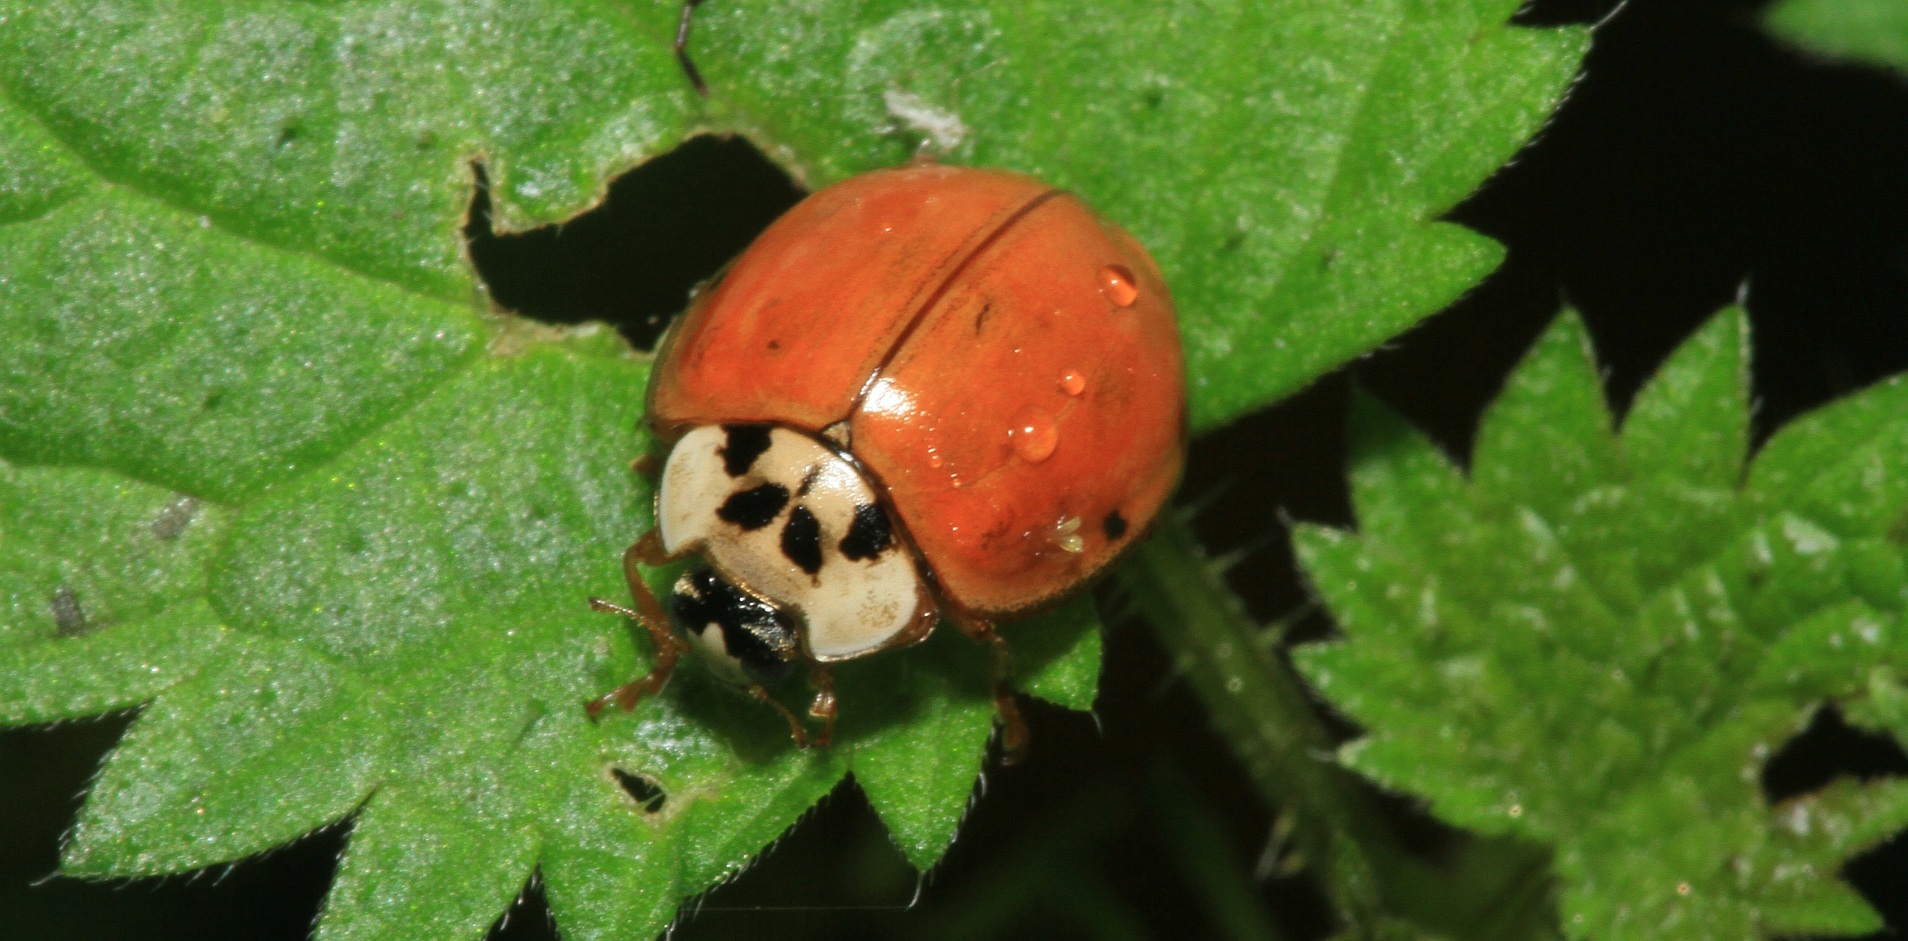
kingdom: Animalia
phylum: Arthropoda
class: Insecta
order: Coleoptera
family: Coccinellidae
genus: Harmonia
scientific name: Harmonia axyridis
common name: Harlequin ladybird
